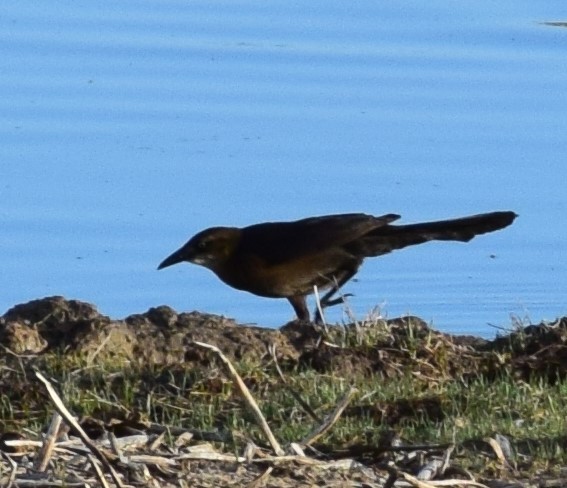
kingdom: Animalia
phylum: Chordata
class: Aves
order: Passeriformes
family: Icteridae
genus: Quiscalus
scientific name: Quiscalus mexicanus
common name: Great-tailed grackle
